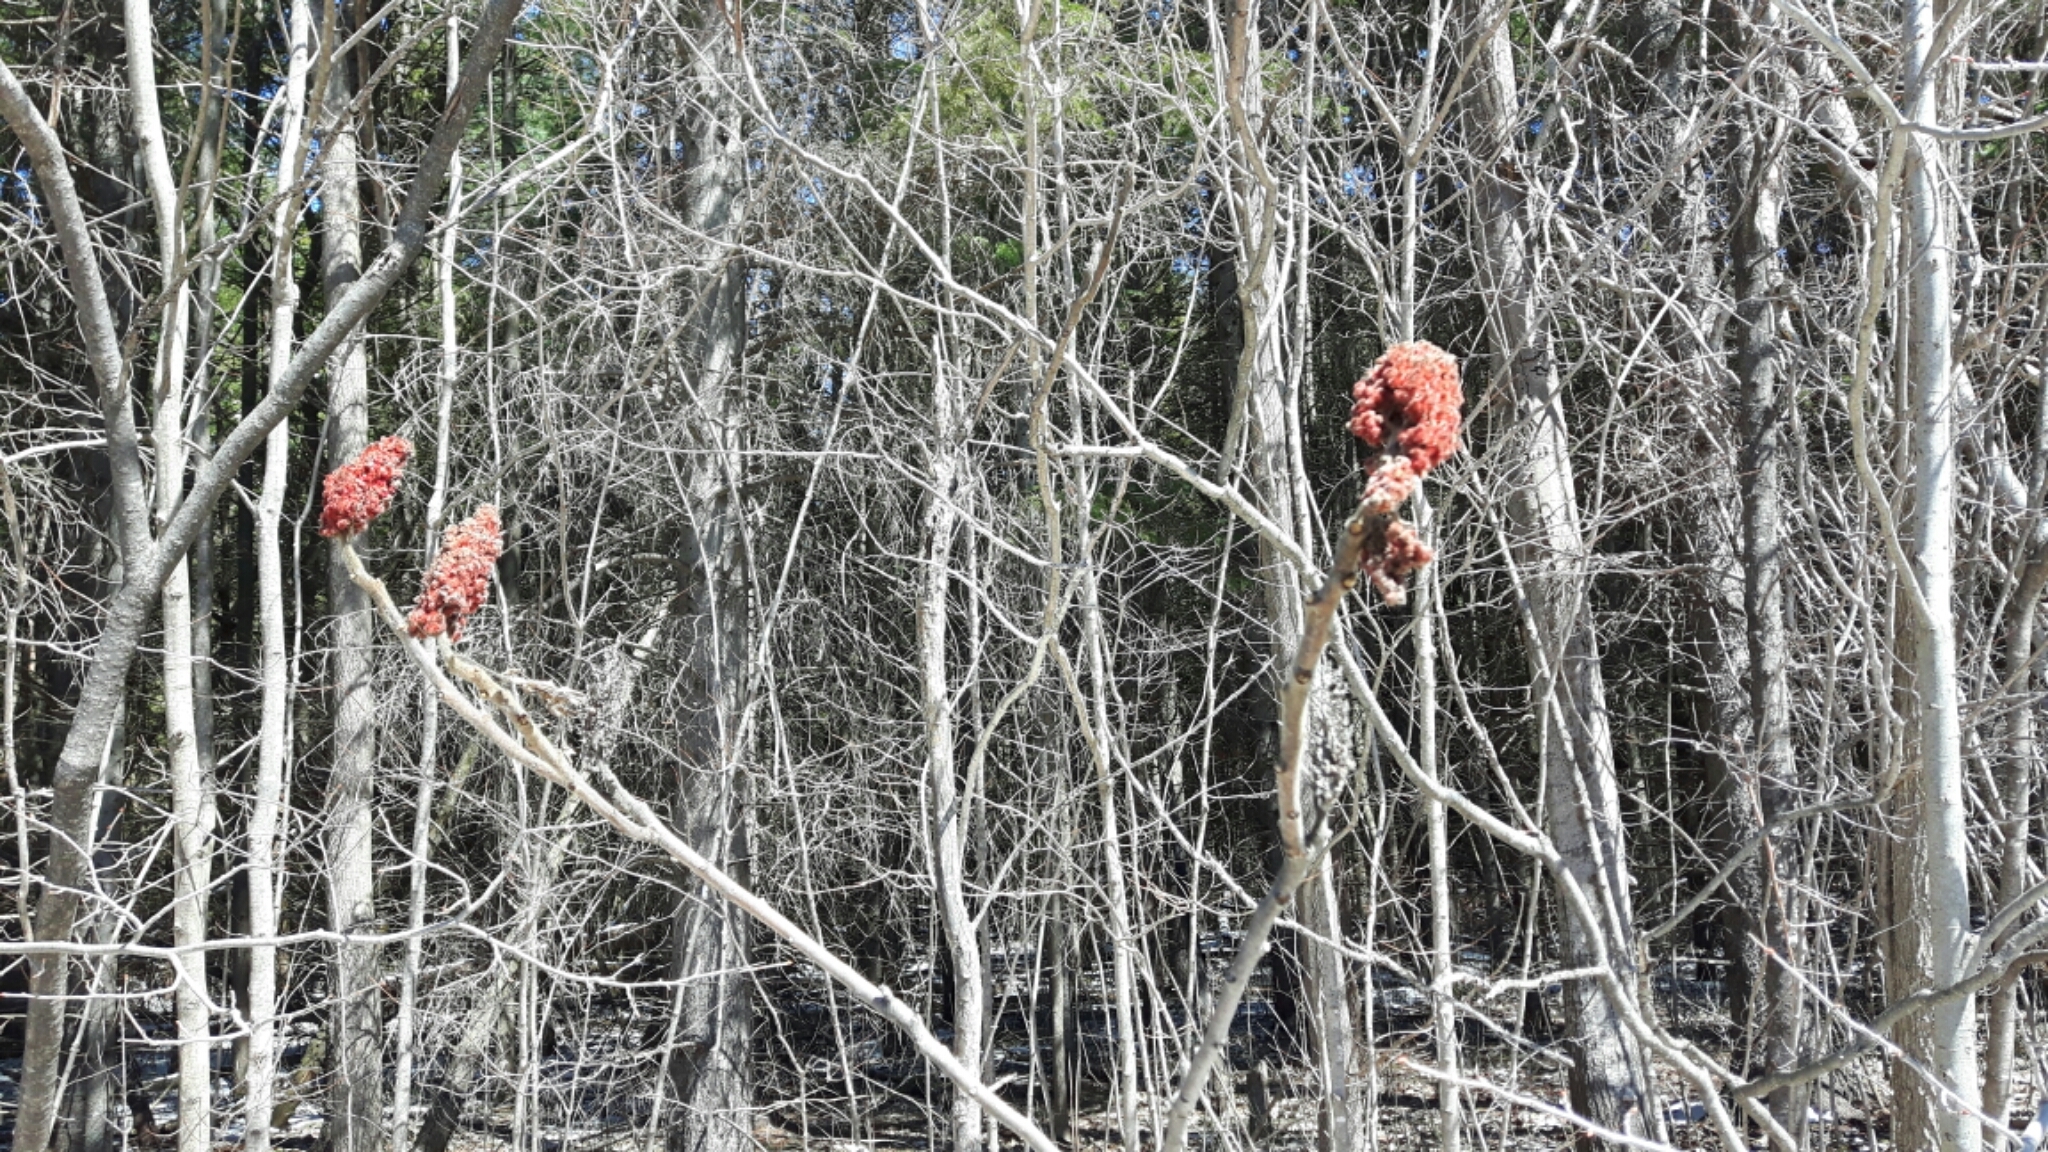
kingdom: Plantae
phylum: Tracheophyta
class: Magnoliopsida
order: Sapindales
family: Anacardiaceae
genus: Rhus
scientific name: Rhus typhina
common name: Staghorn sumac
